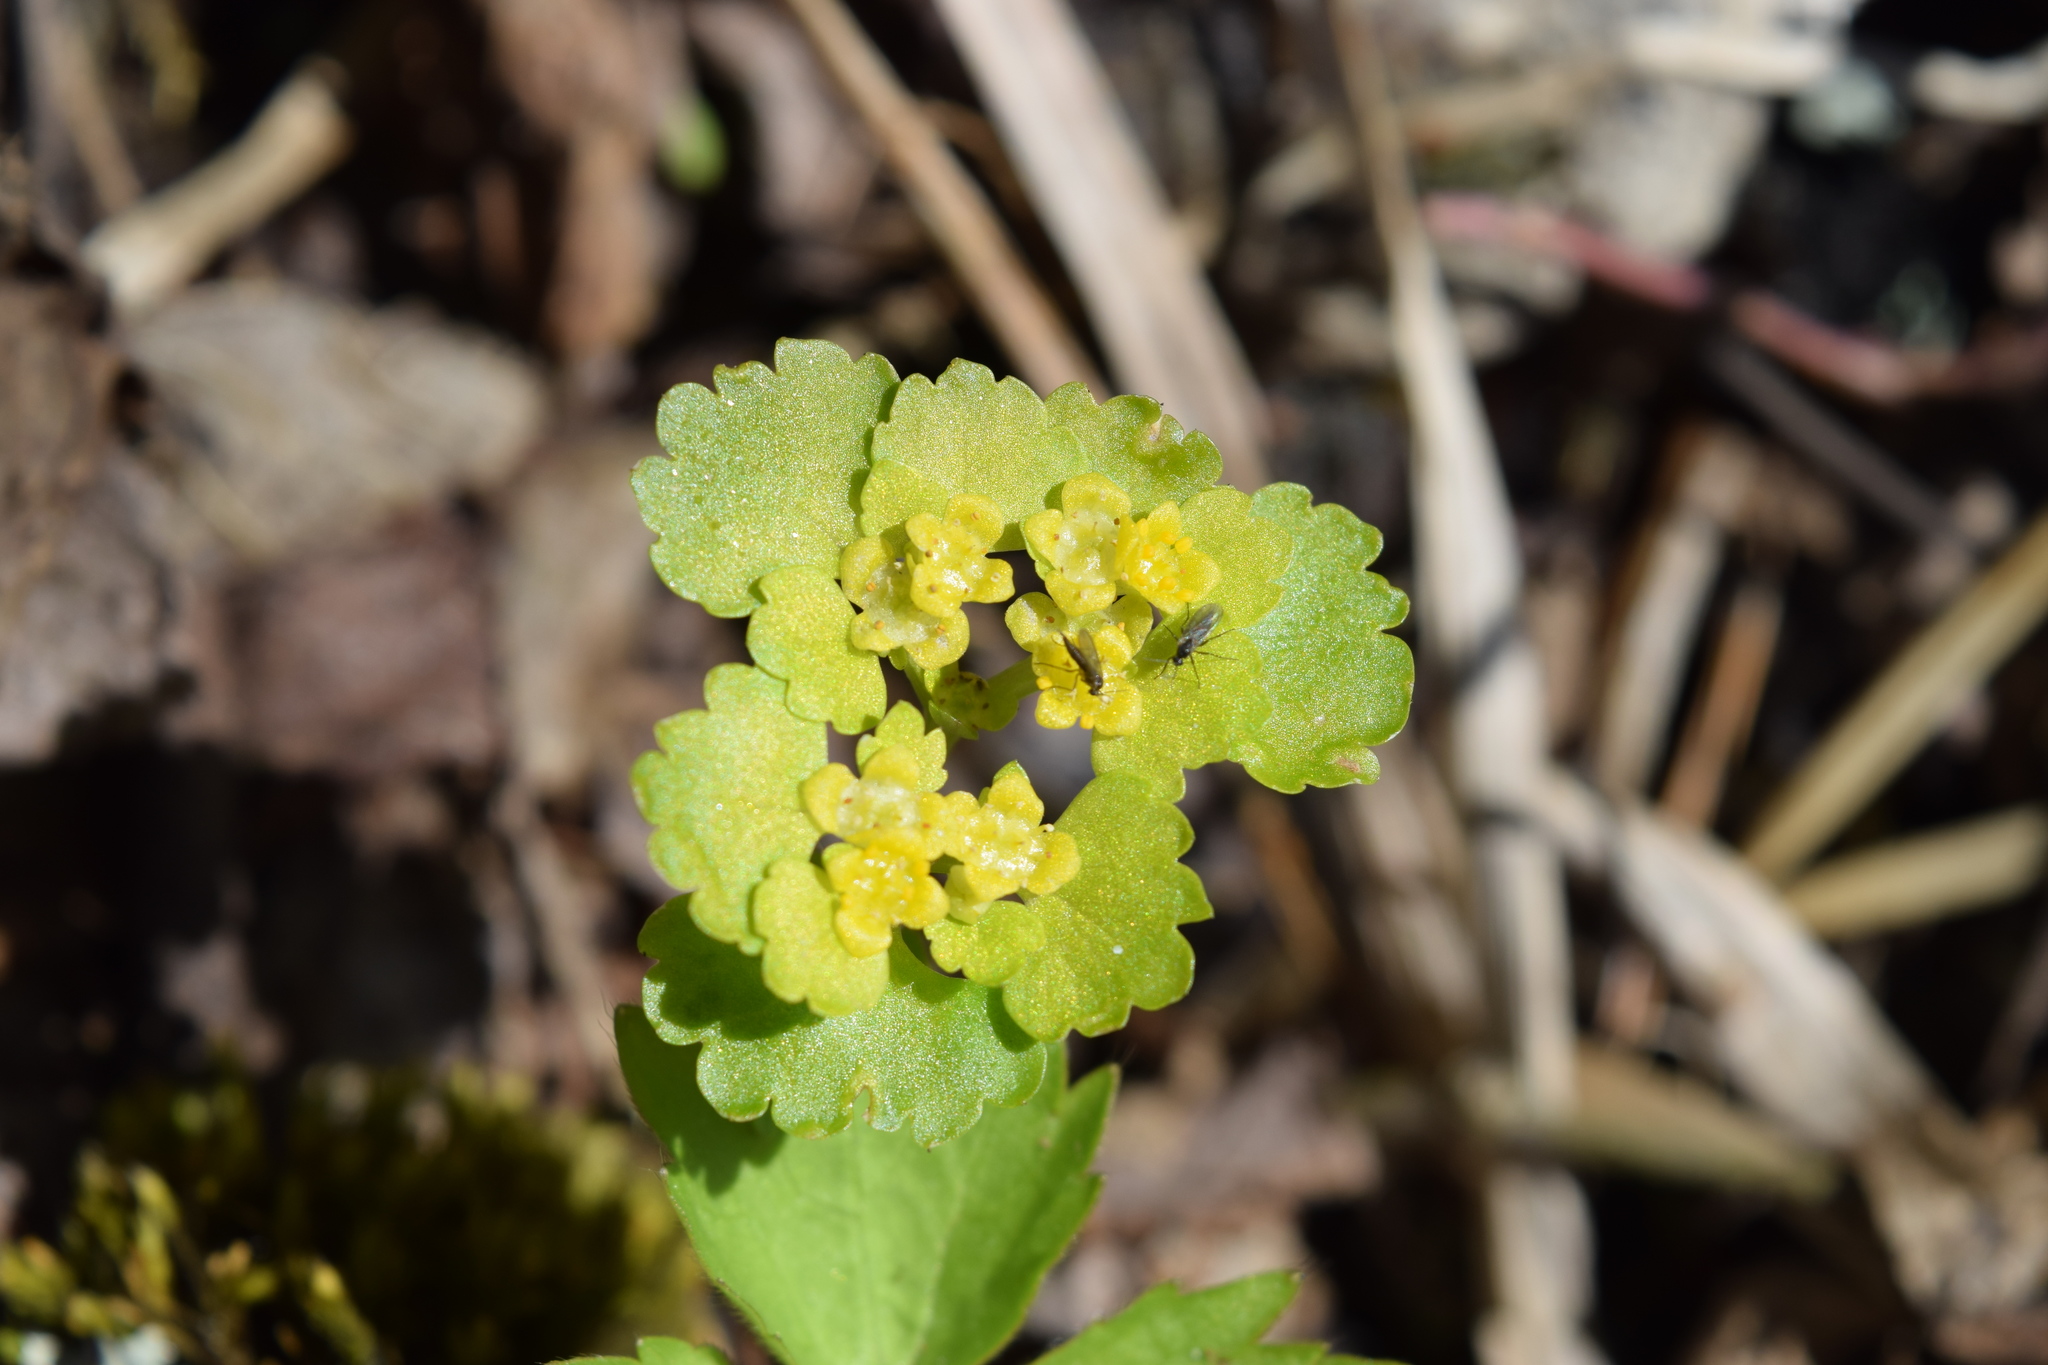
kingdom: Plantae
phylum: Tracheophyta
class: Magnoliopsida
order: Saxifragales
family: Saxifragaceae
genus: Chrysosplenium
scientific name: Chrysosplenium alternifolium
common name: Alternate-leaved golden-saxifrage
